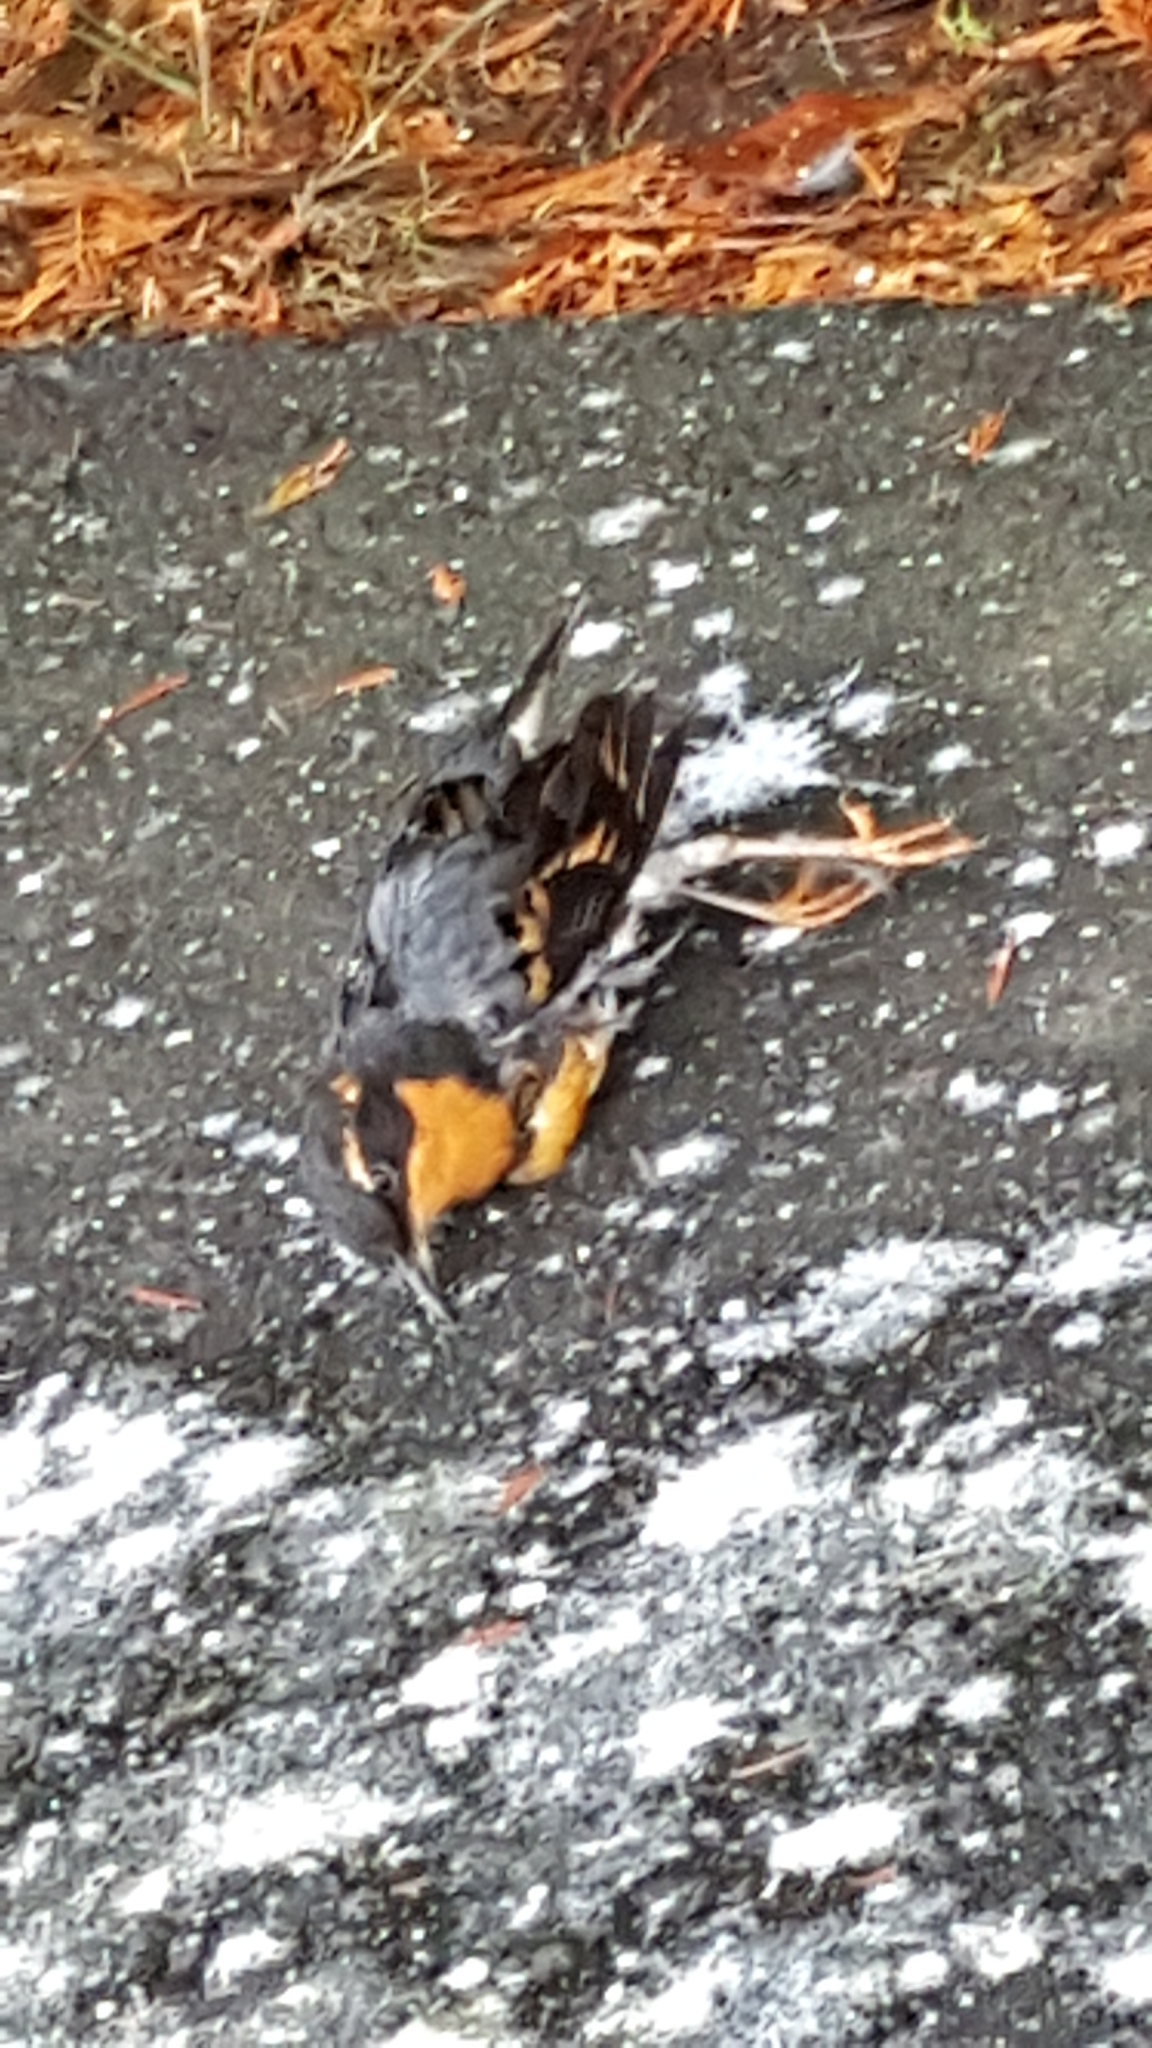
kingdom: Animalia
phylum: Chordata
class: Aves
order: Passeriformes
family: Turdidae
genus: Ixoreus
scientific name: Ixoreus naevius
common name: Varied thrush
